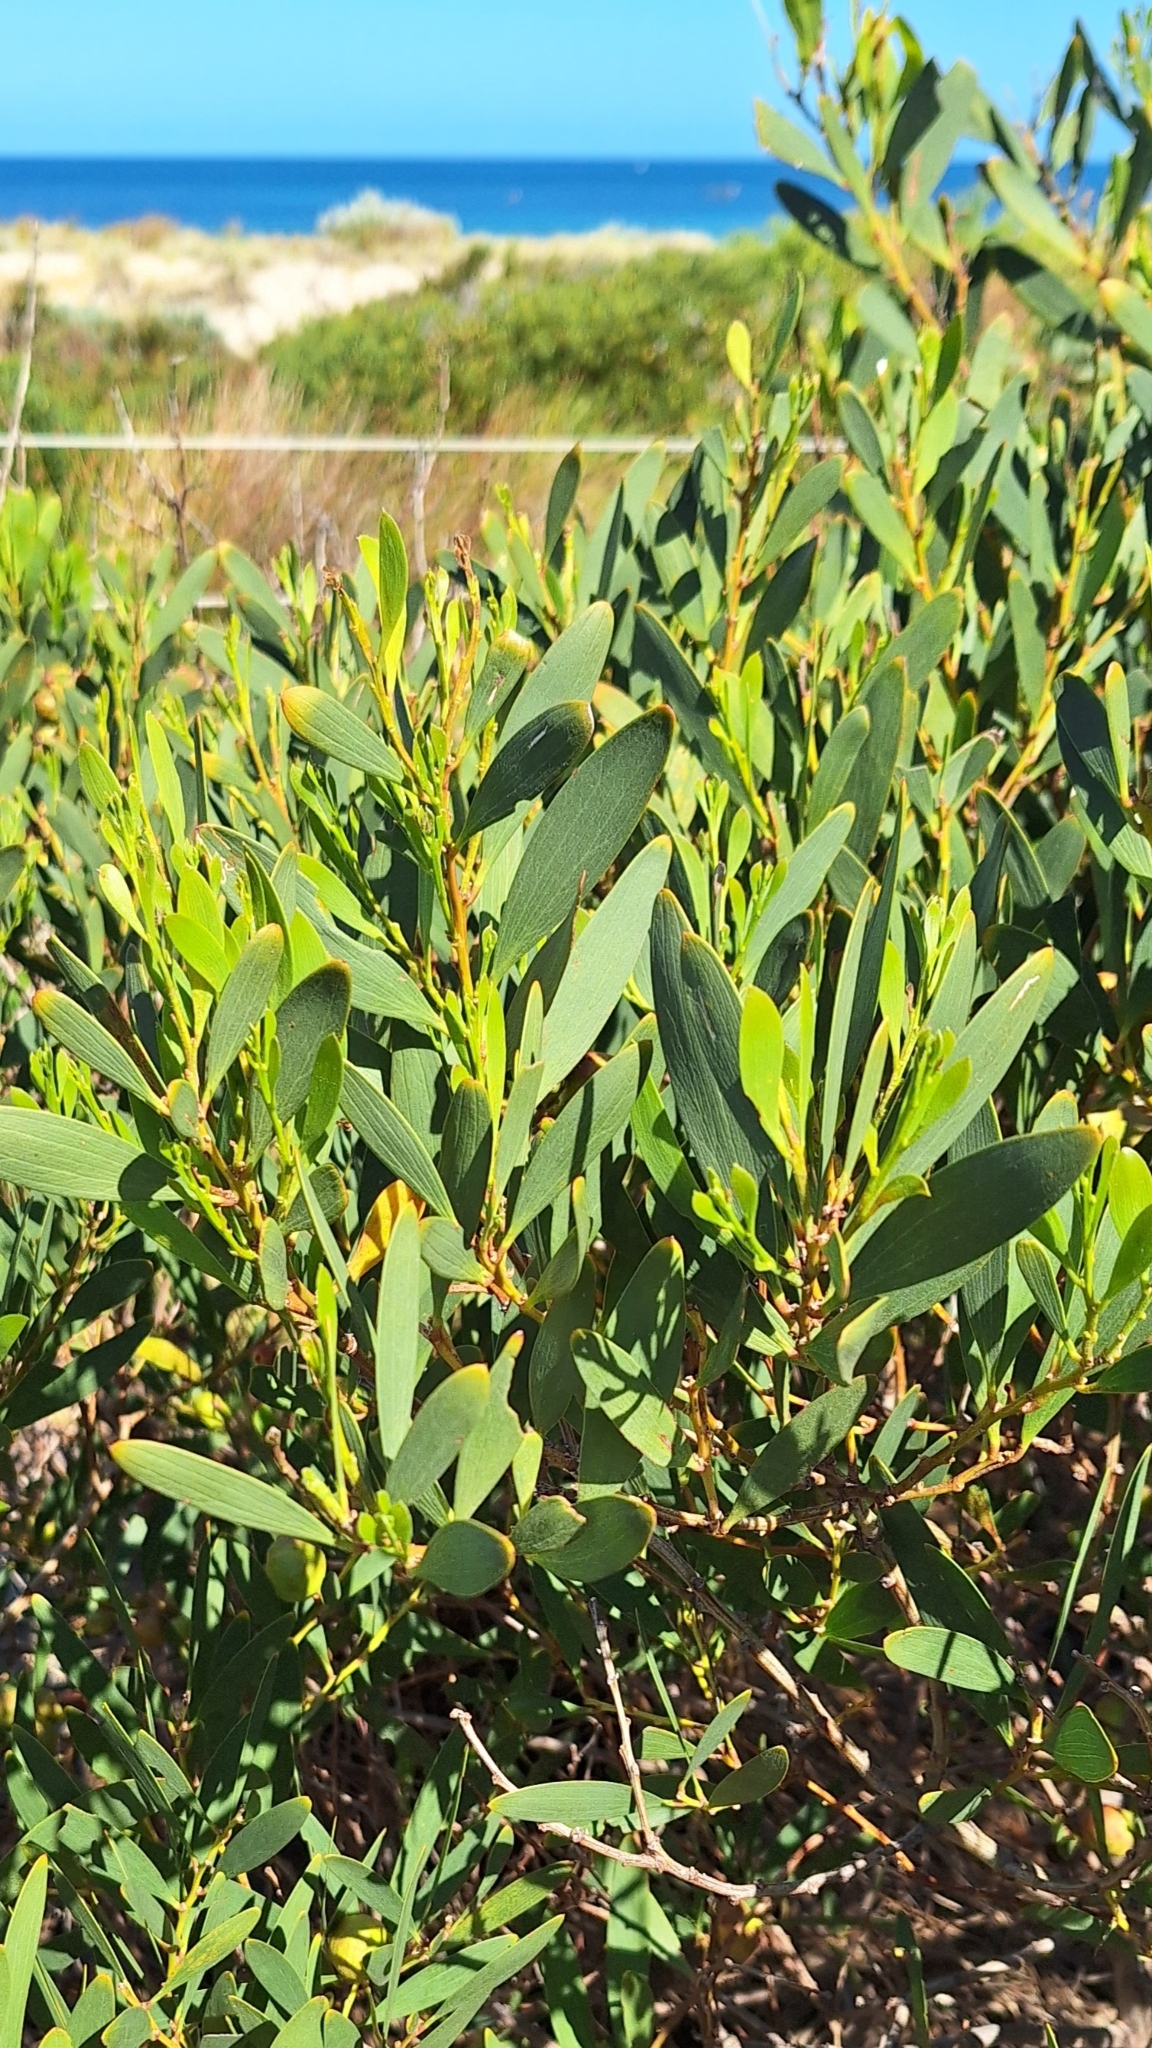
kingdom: Plantae
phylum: Tracheophyta
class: Magnoliopsida
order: Fabales
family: Fabaceae
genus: Acacia
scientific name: Acacia longifolia
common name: Sydney golden wattle
